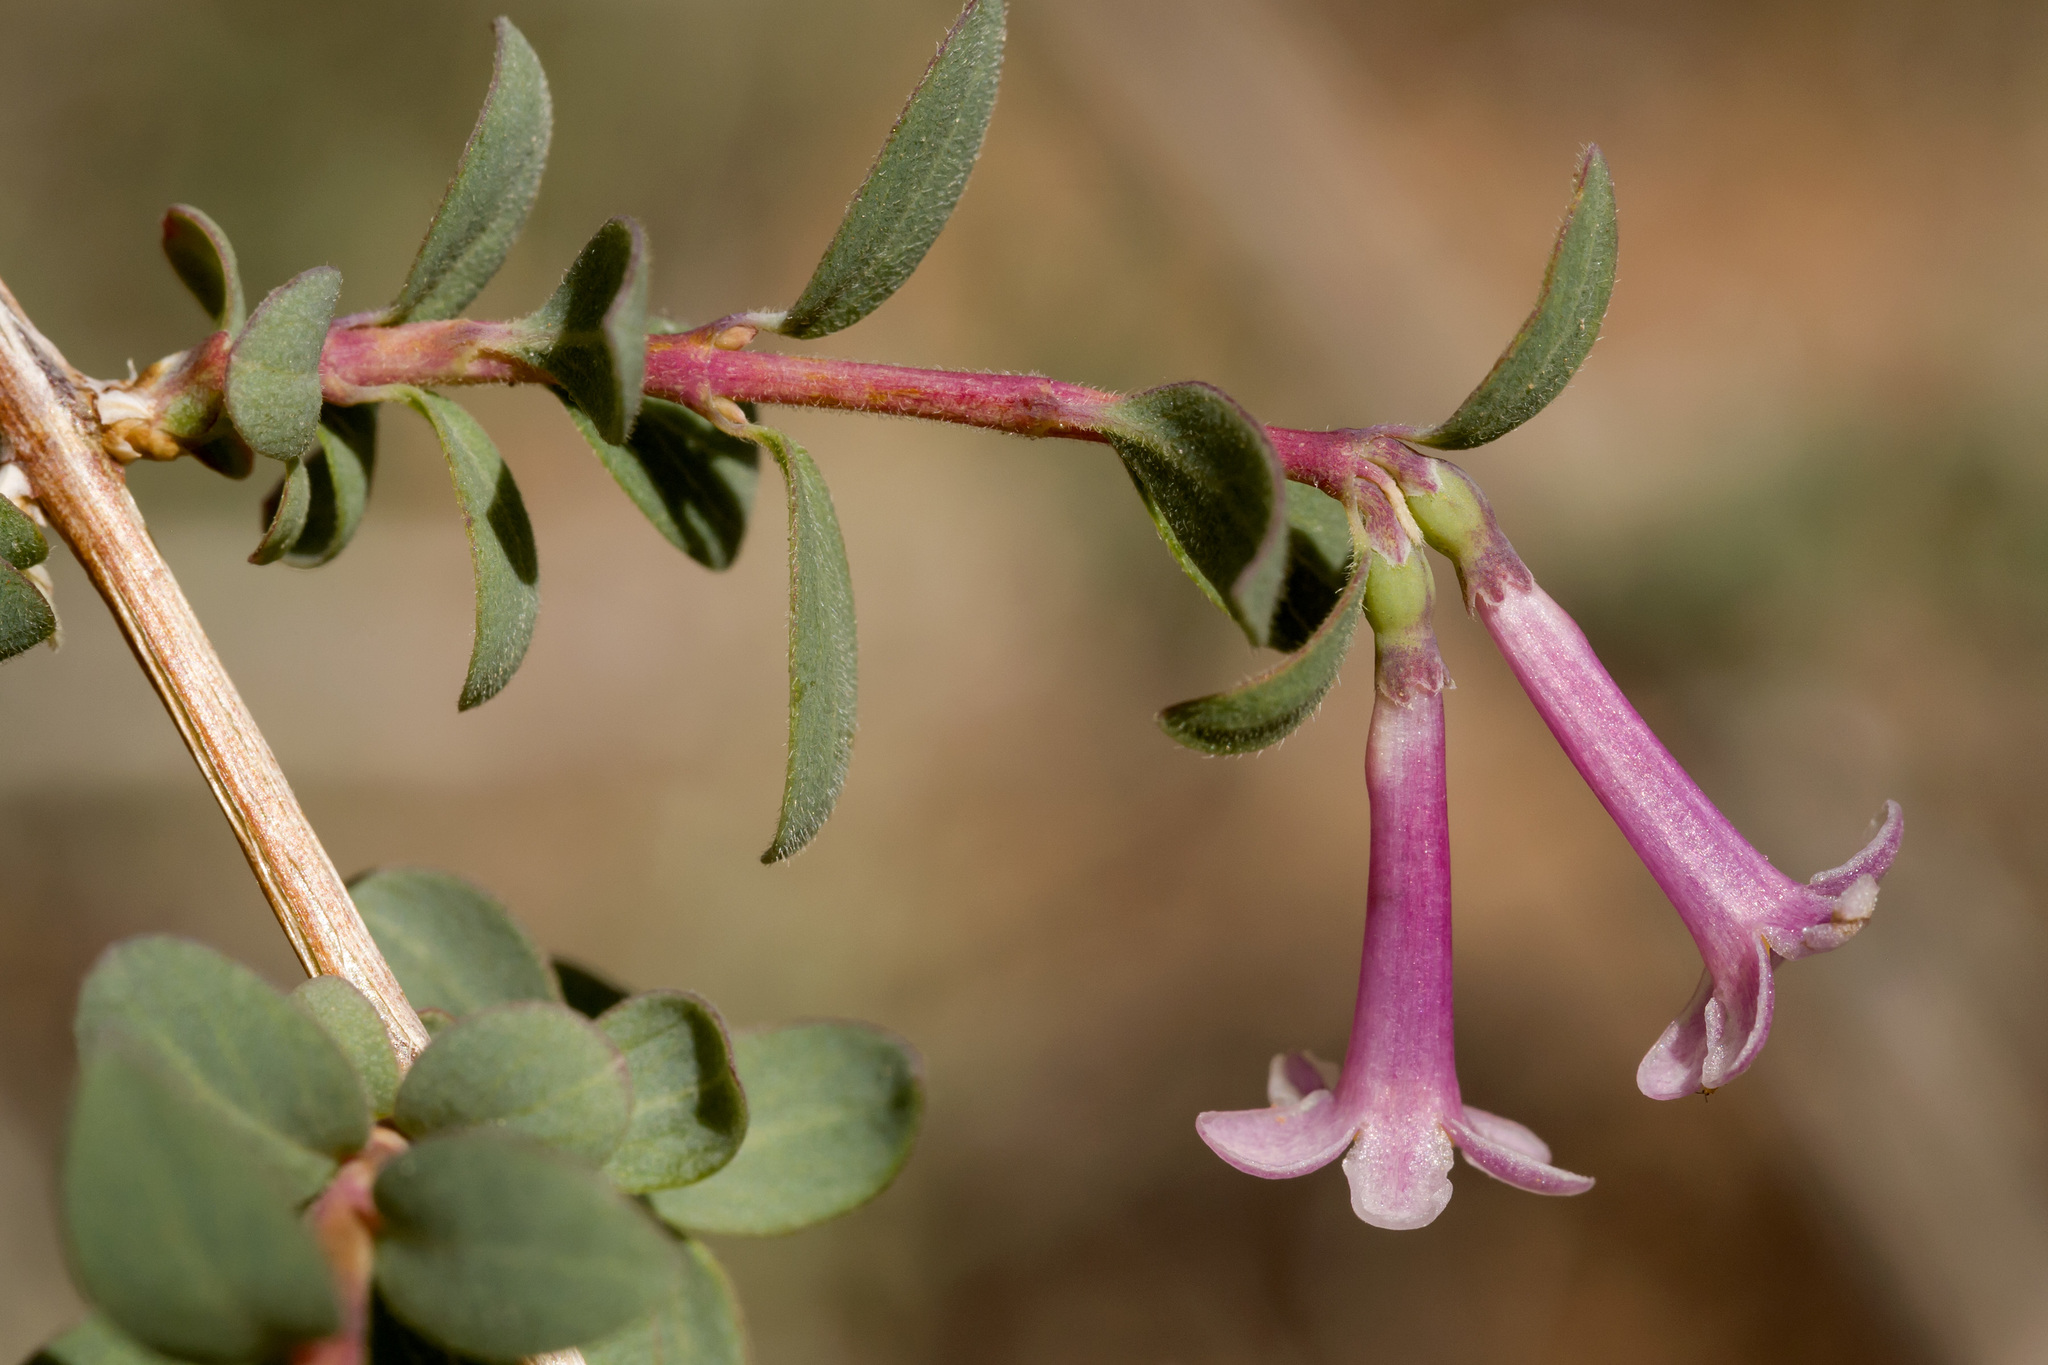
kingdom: Plantae
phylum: Tracheophyta
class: Magnoliopsida
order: Dipsacales
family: Caprifoliaceae
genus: Symphoricarpos
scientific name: Symphoricarpos longiflorus
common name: Fragrant snowberry
